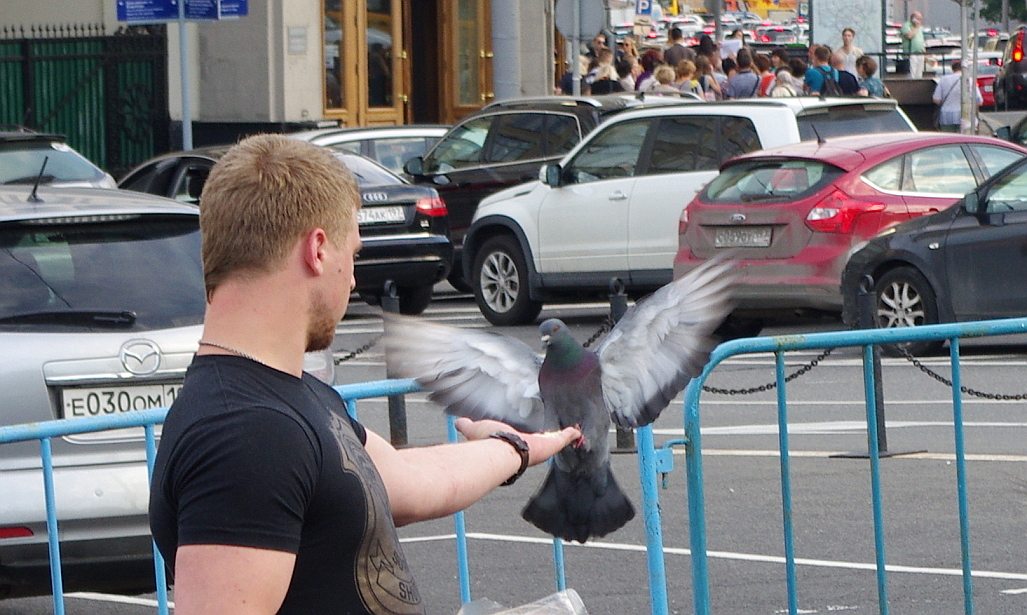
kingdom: Animalia
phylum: Chordata
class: Aves
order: Columbiformes
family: Columbidae
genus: Columba
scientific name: Columba livia
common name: Rock pigeon
